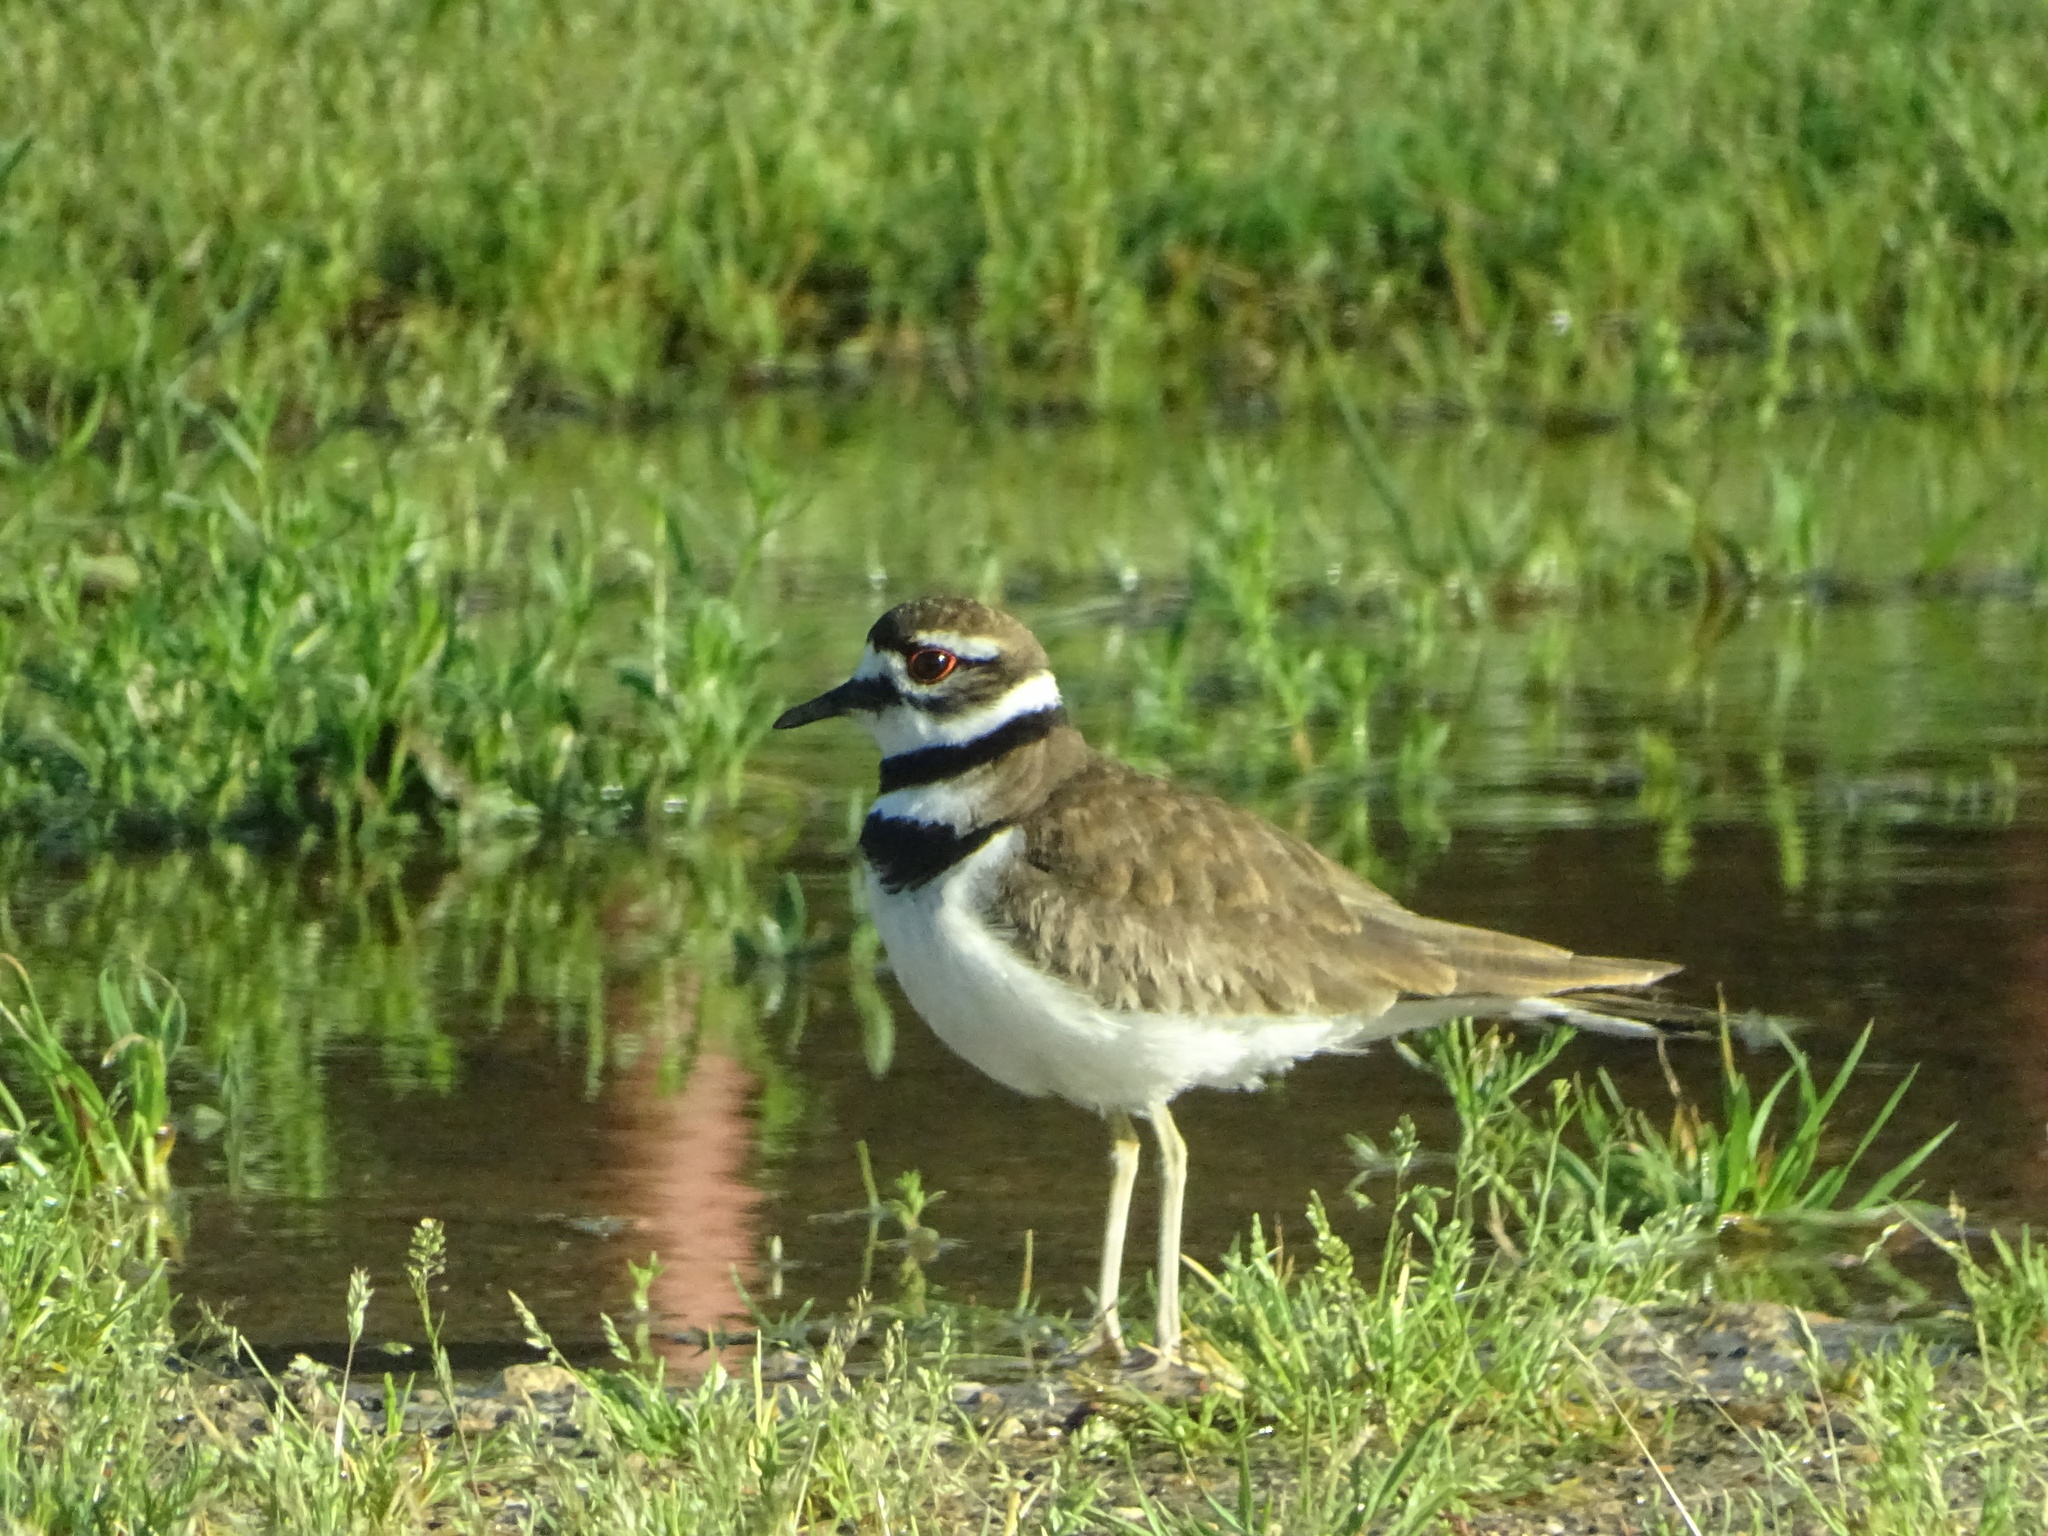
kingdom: Animalia
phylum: Chordata
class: Aves
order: Charadriiformes
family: Charadriidae
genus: Charadrius
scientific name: Charadrius vociferus
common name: Killdeer
